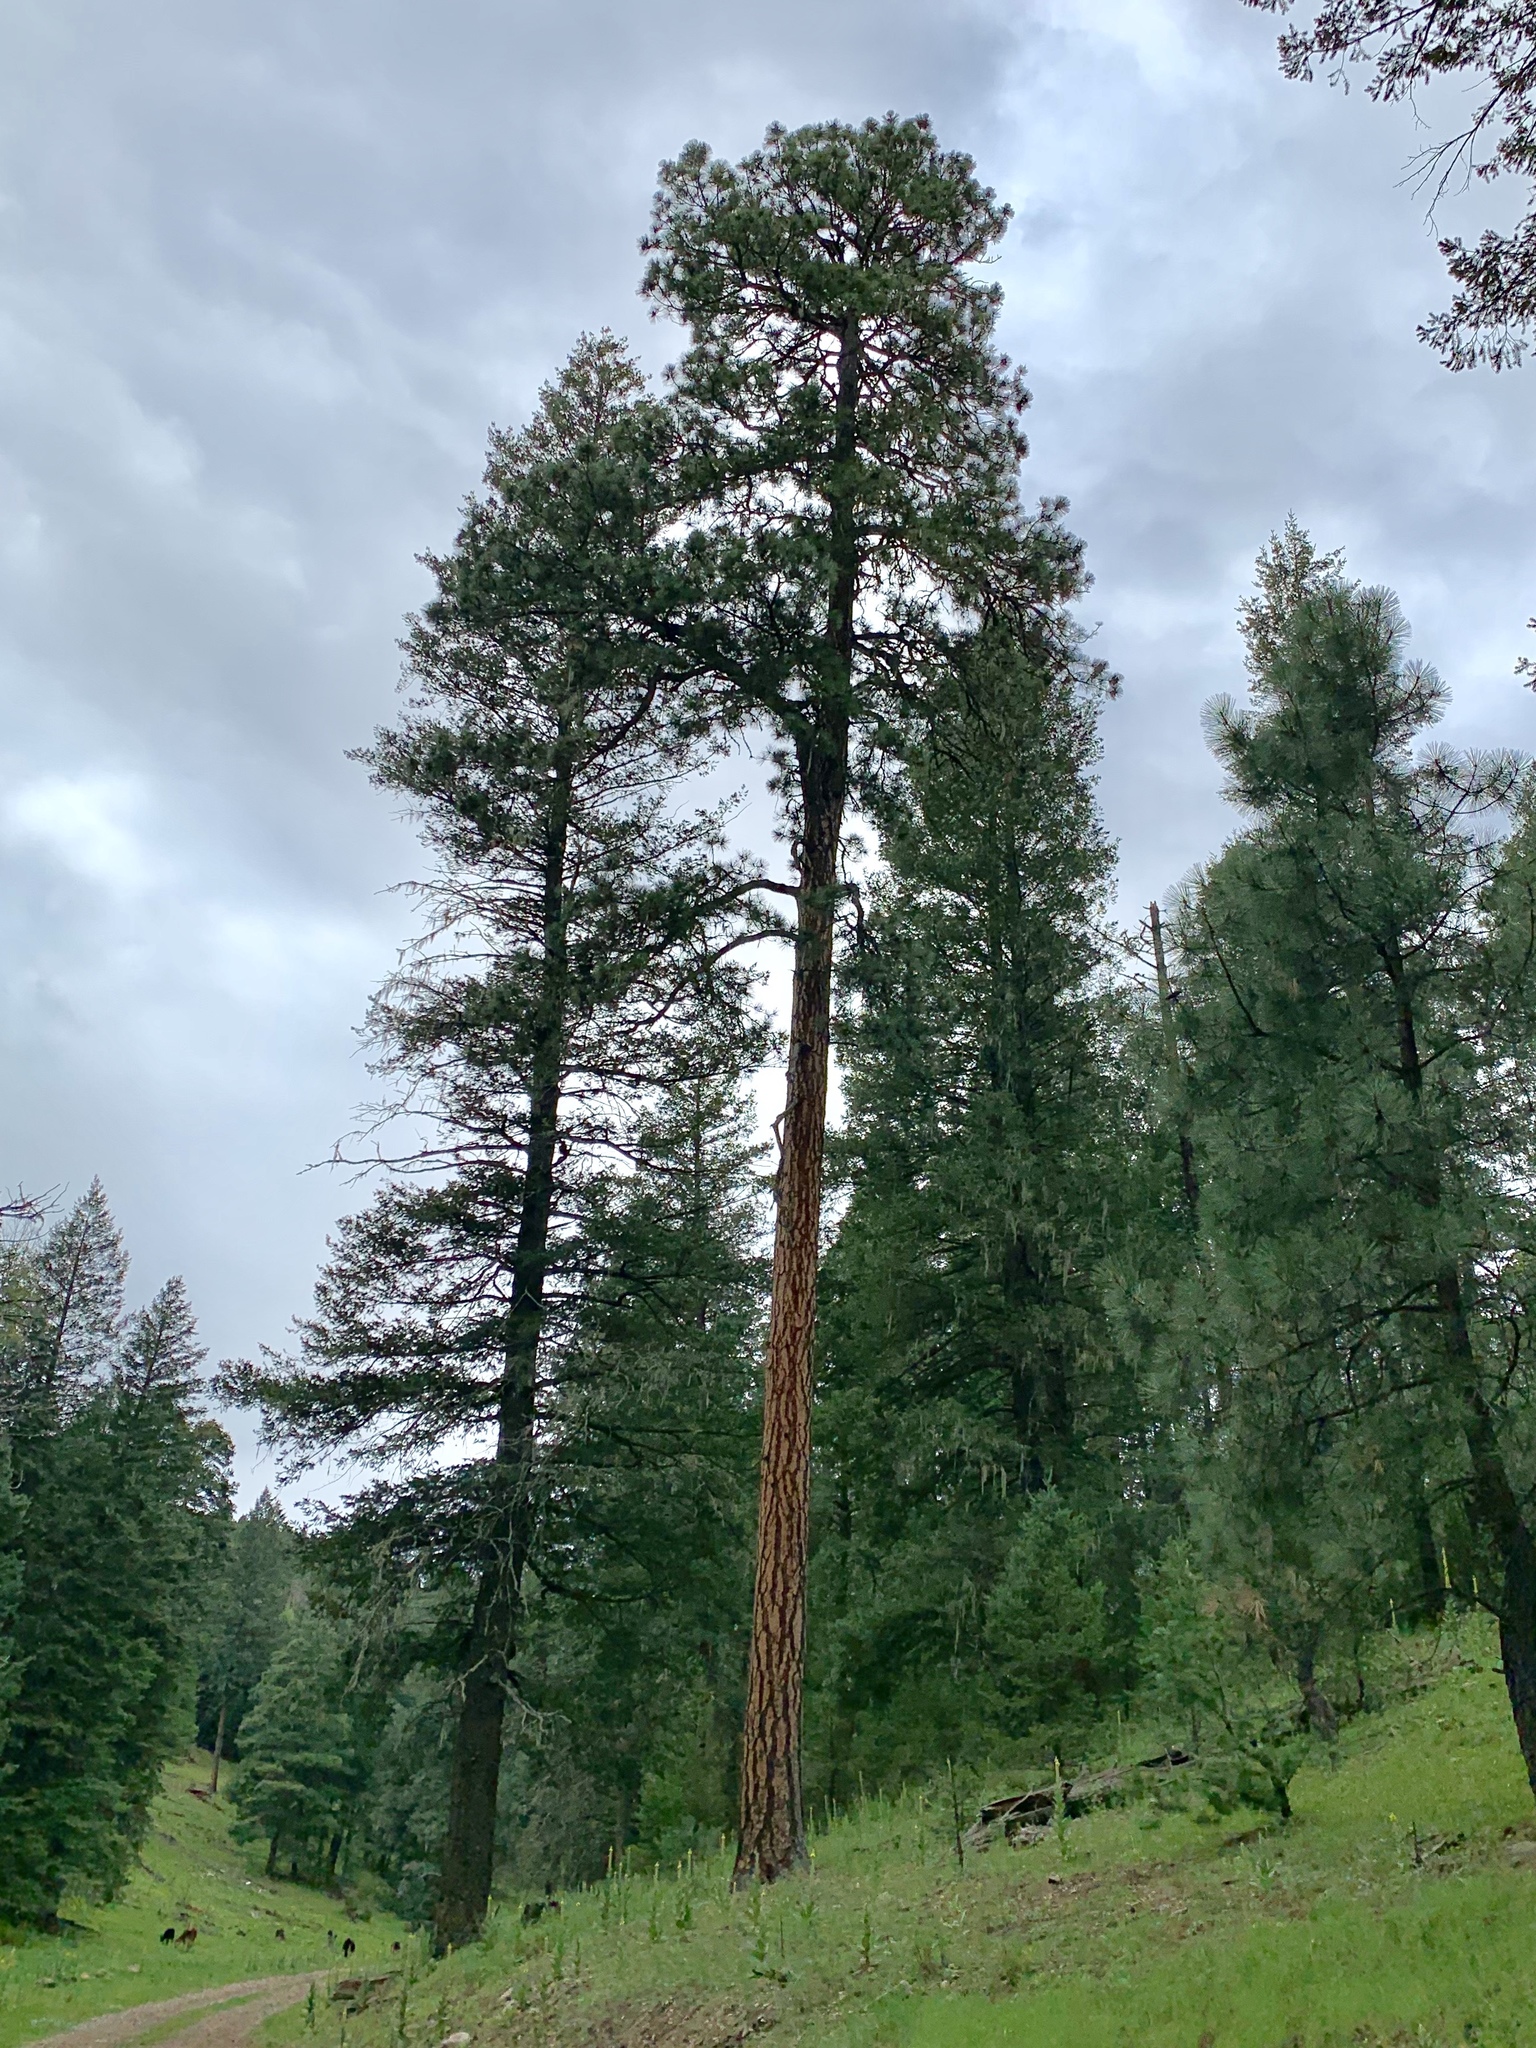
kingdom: Plantae
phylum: Tracheophyta
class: Pinopsida
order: Pinales
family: Pinaceae
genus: Pinus
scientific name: Pinus ponderosa
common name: Western yellow-pine
